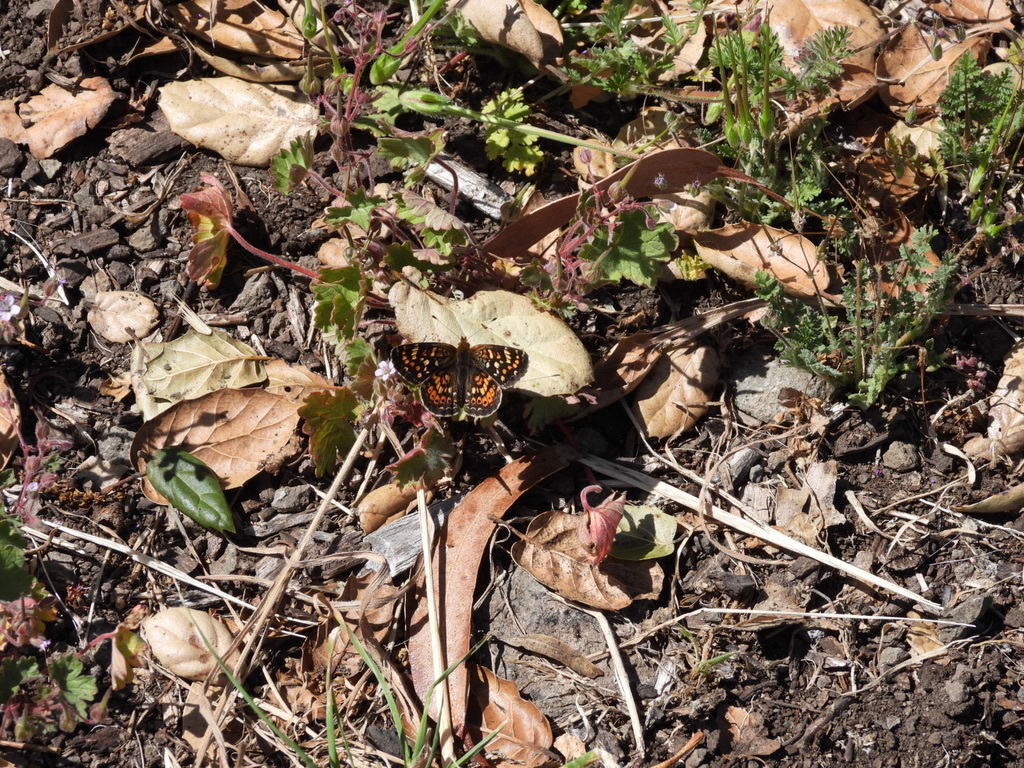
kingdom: Animalia
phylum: Arthropoda
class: Insecta
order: Lepidoptera
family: Nymphalidae
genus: Phyciodes
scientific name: Phyciodes tharos
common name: Pearl crescent
